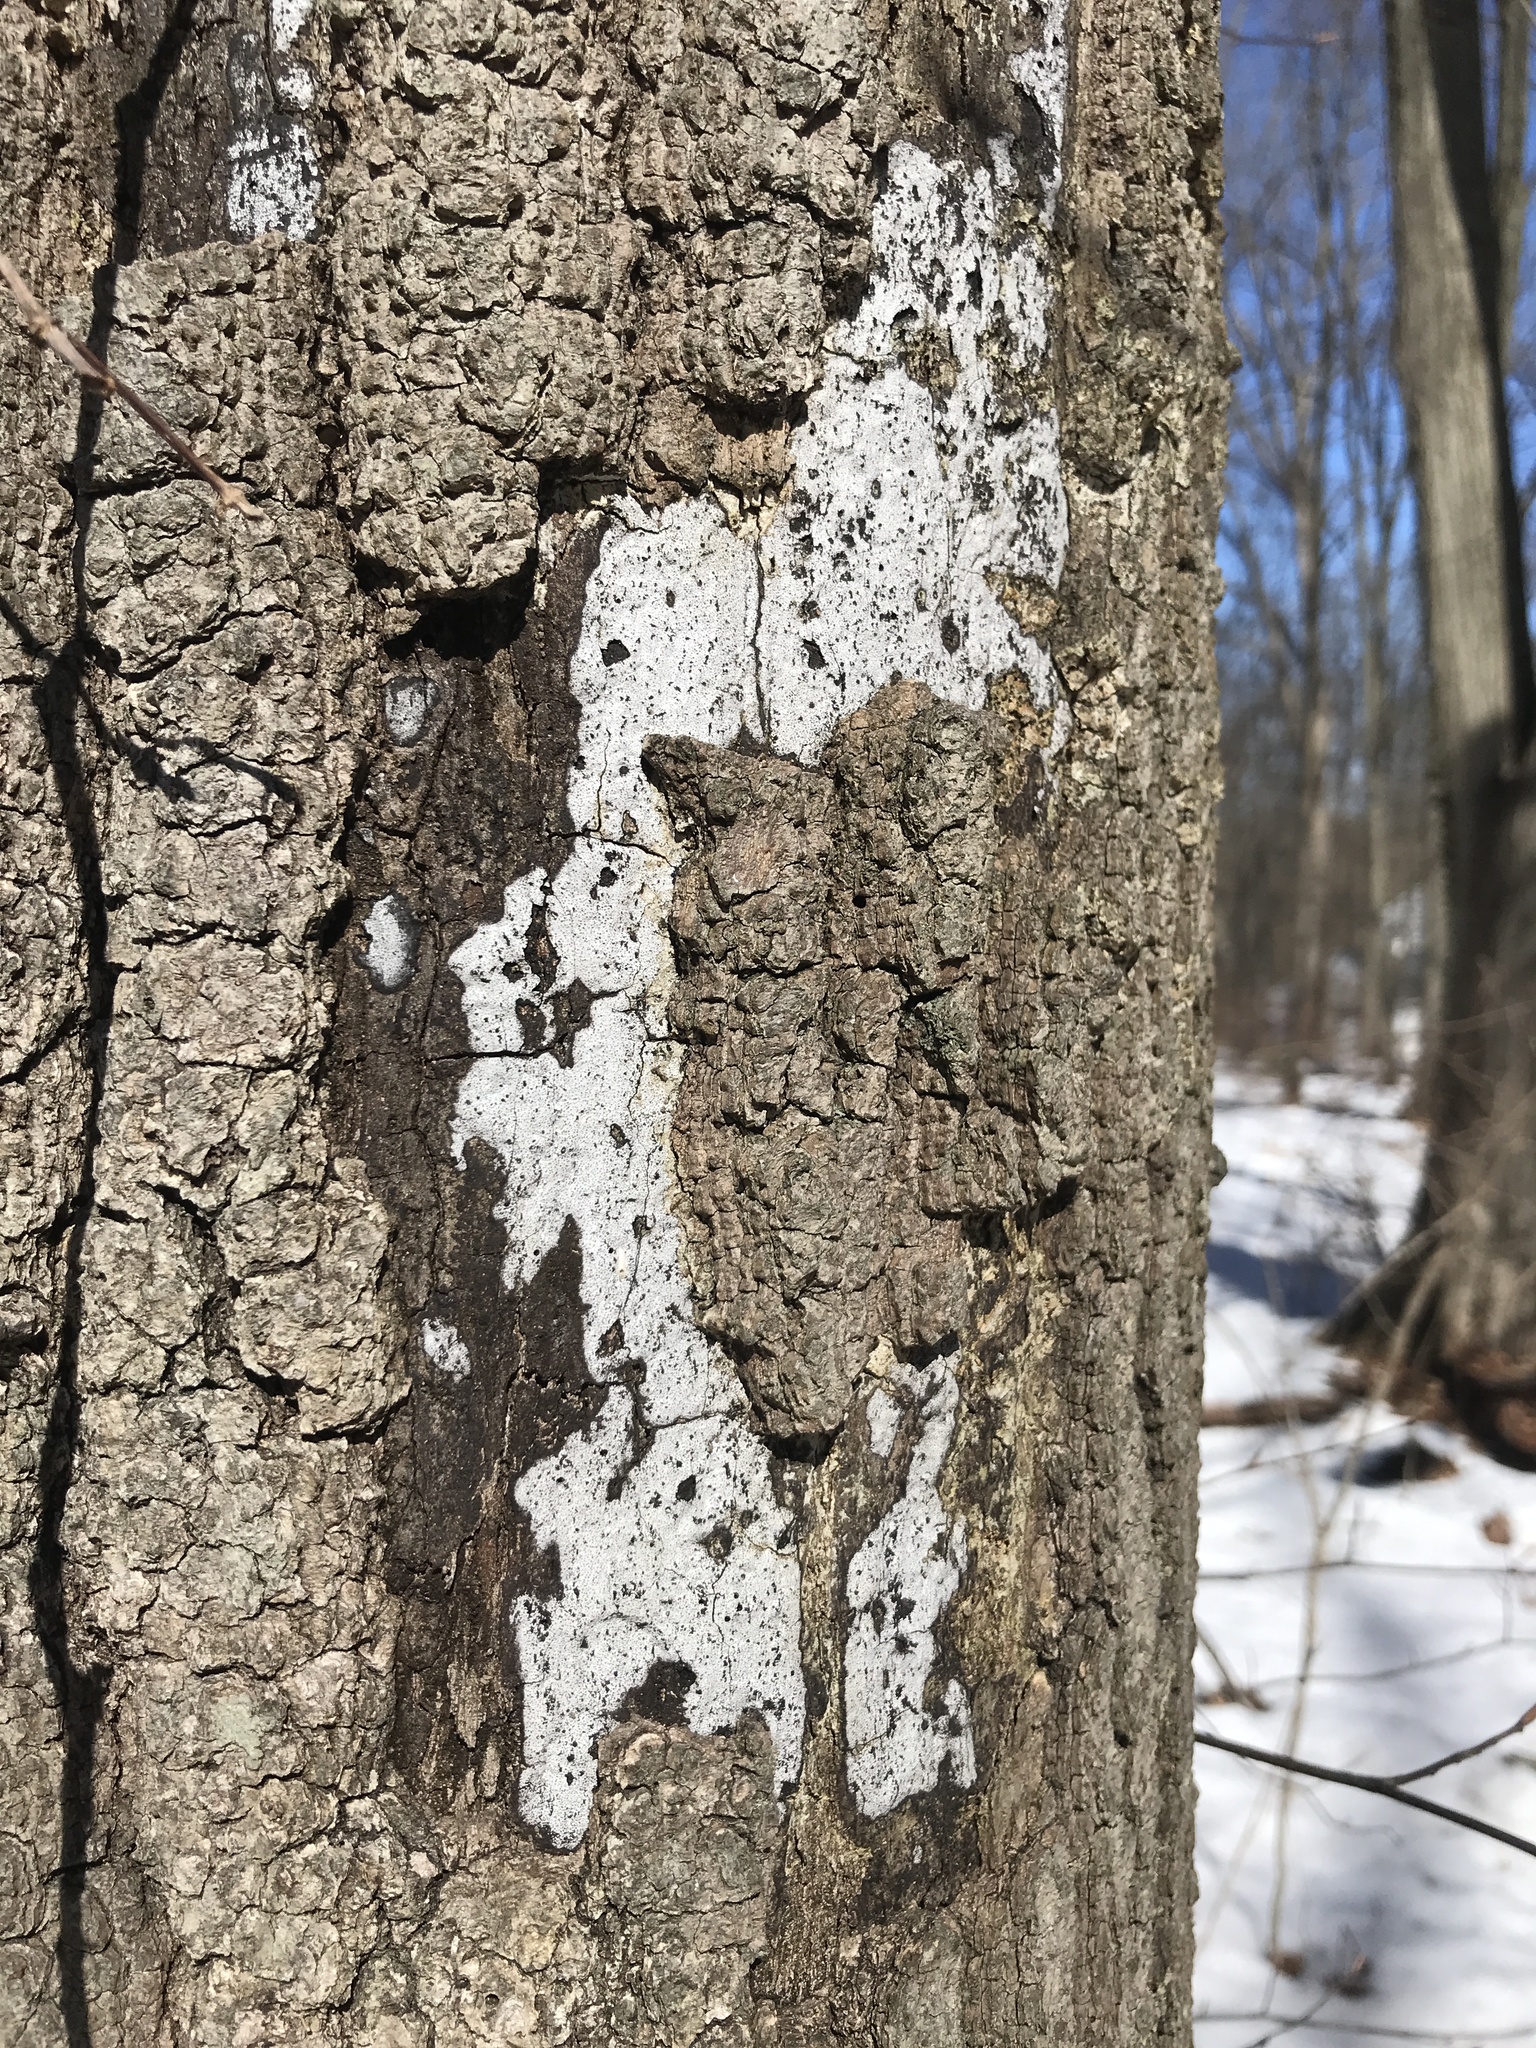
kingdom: Fungi
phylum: Ascomycota
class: Sordariomycetes
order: Xylariales
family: Graphostromataceae
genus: Biscogniauxia
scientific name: Biscogniauxia atropunctata
